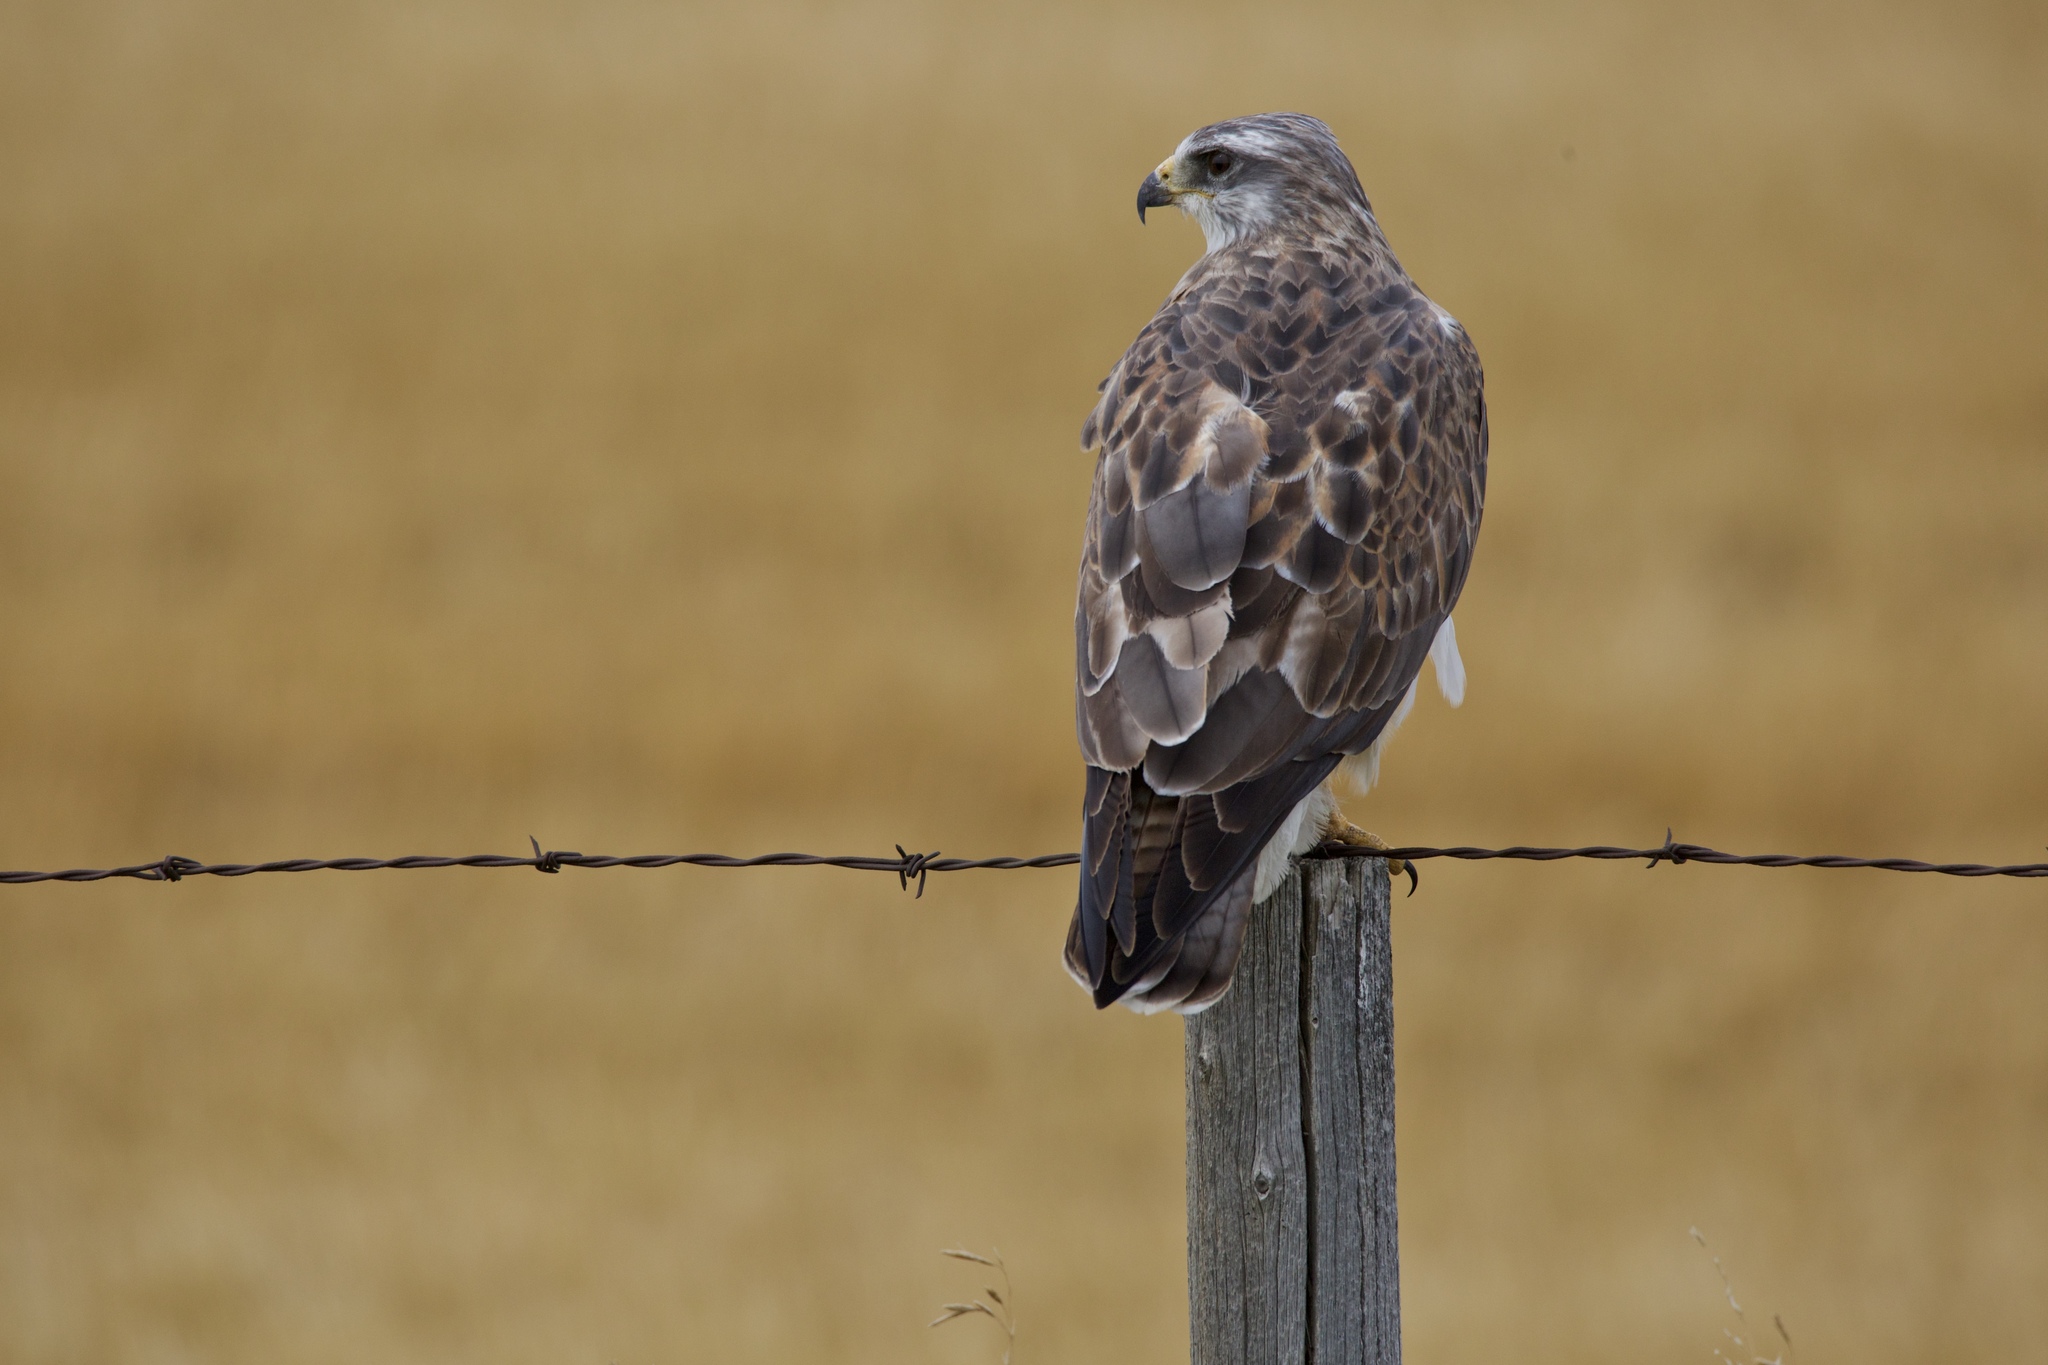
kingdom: Animalia
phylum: Chordata
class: Aves
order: Accipitriformes
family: Accipitridae
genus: Buteo
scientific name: Buteo swainsoni
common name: Swainson's hawk
